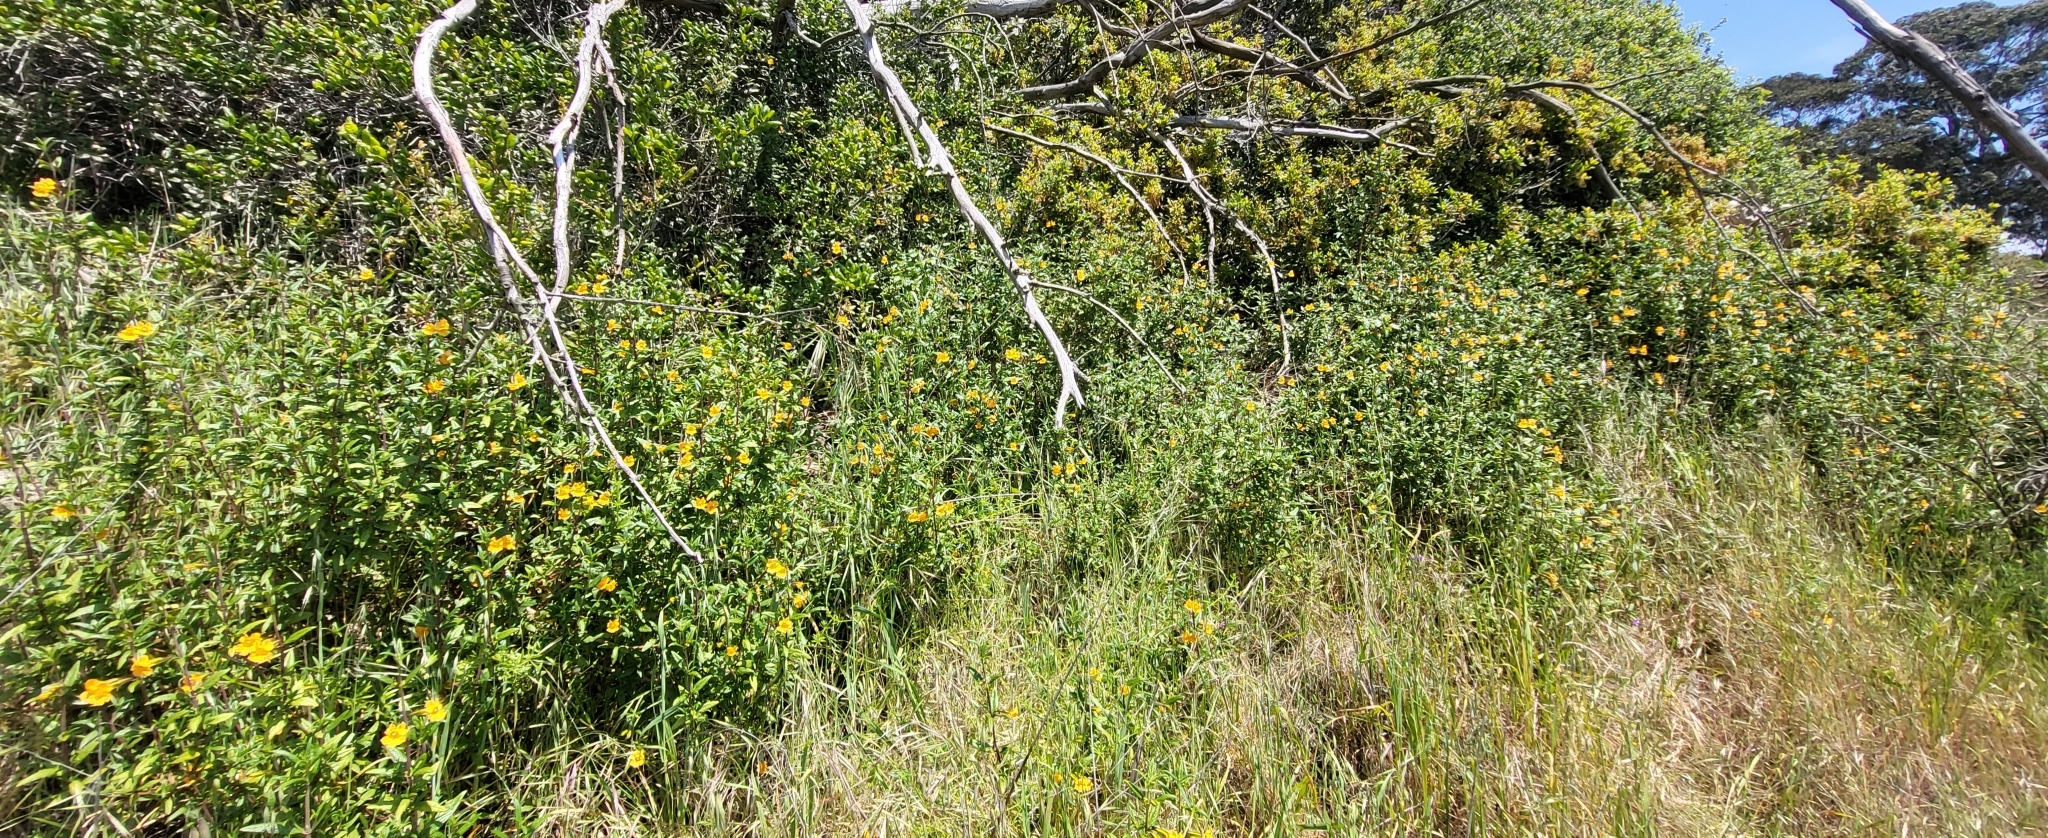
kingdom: Plantae
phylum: Tracheophyta
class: Magnoliopsida
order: Lamiales
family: Phrymaceae
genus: Diplacus
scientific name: Diplacus aurantiacus
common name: Bush monkey-flower
